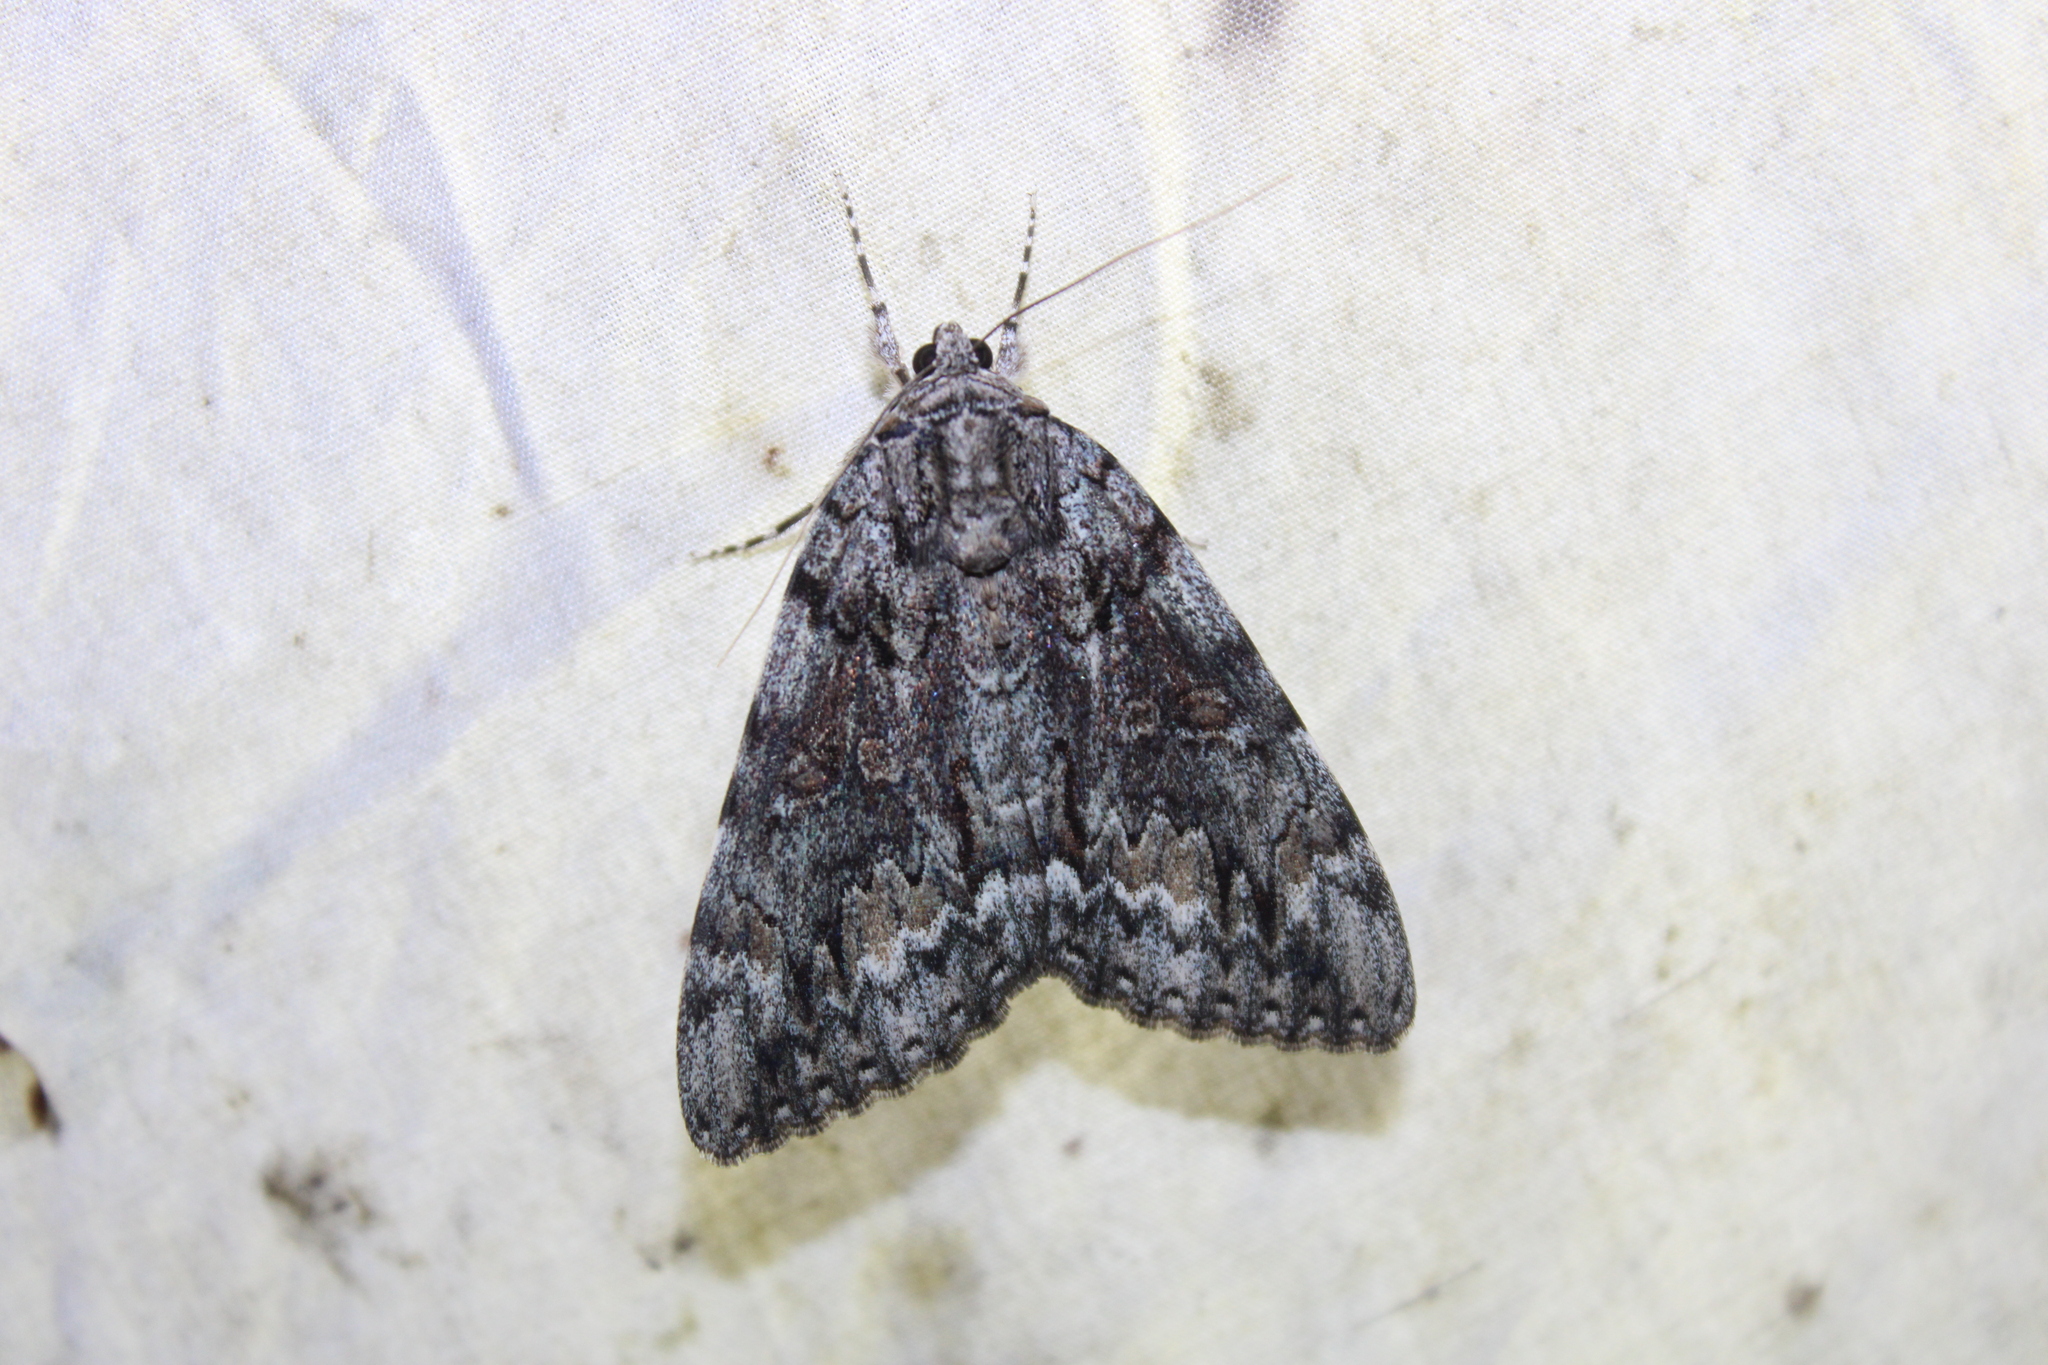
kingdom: Animalia
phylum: Arthropoda
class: Insecta
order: Lepidoptera
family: Erebidae
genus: Catocala
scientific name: Catocala palaeogama
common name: Oldwife underwing
